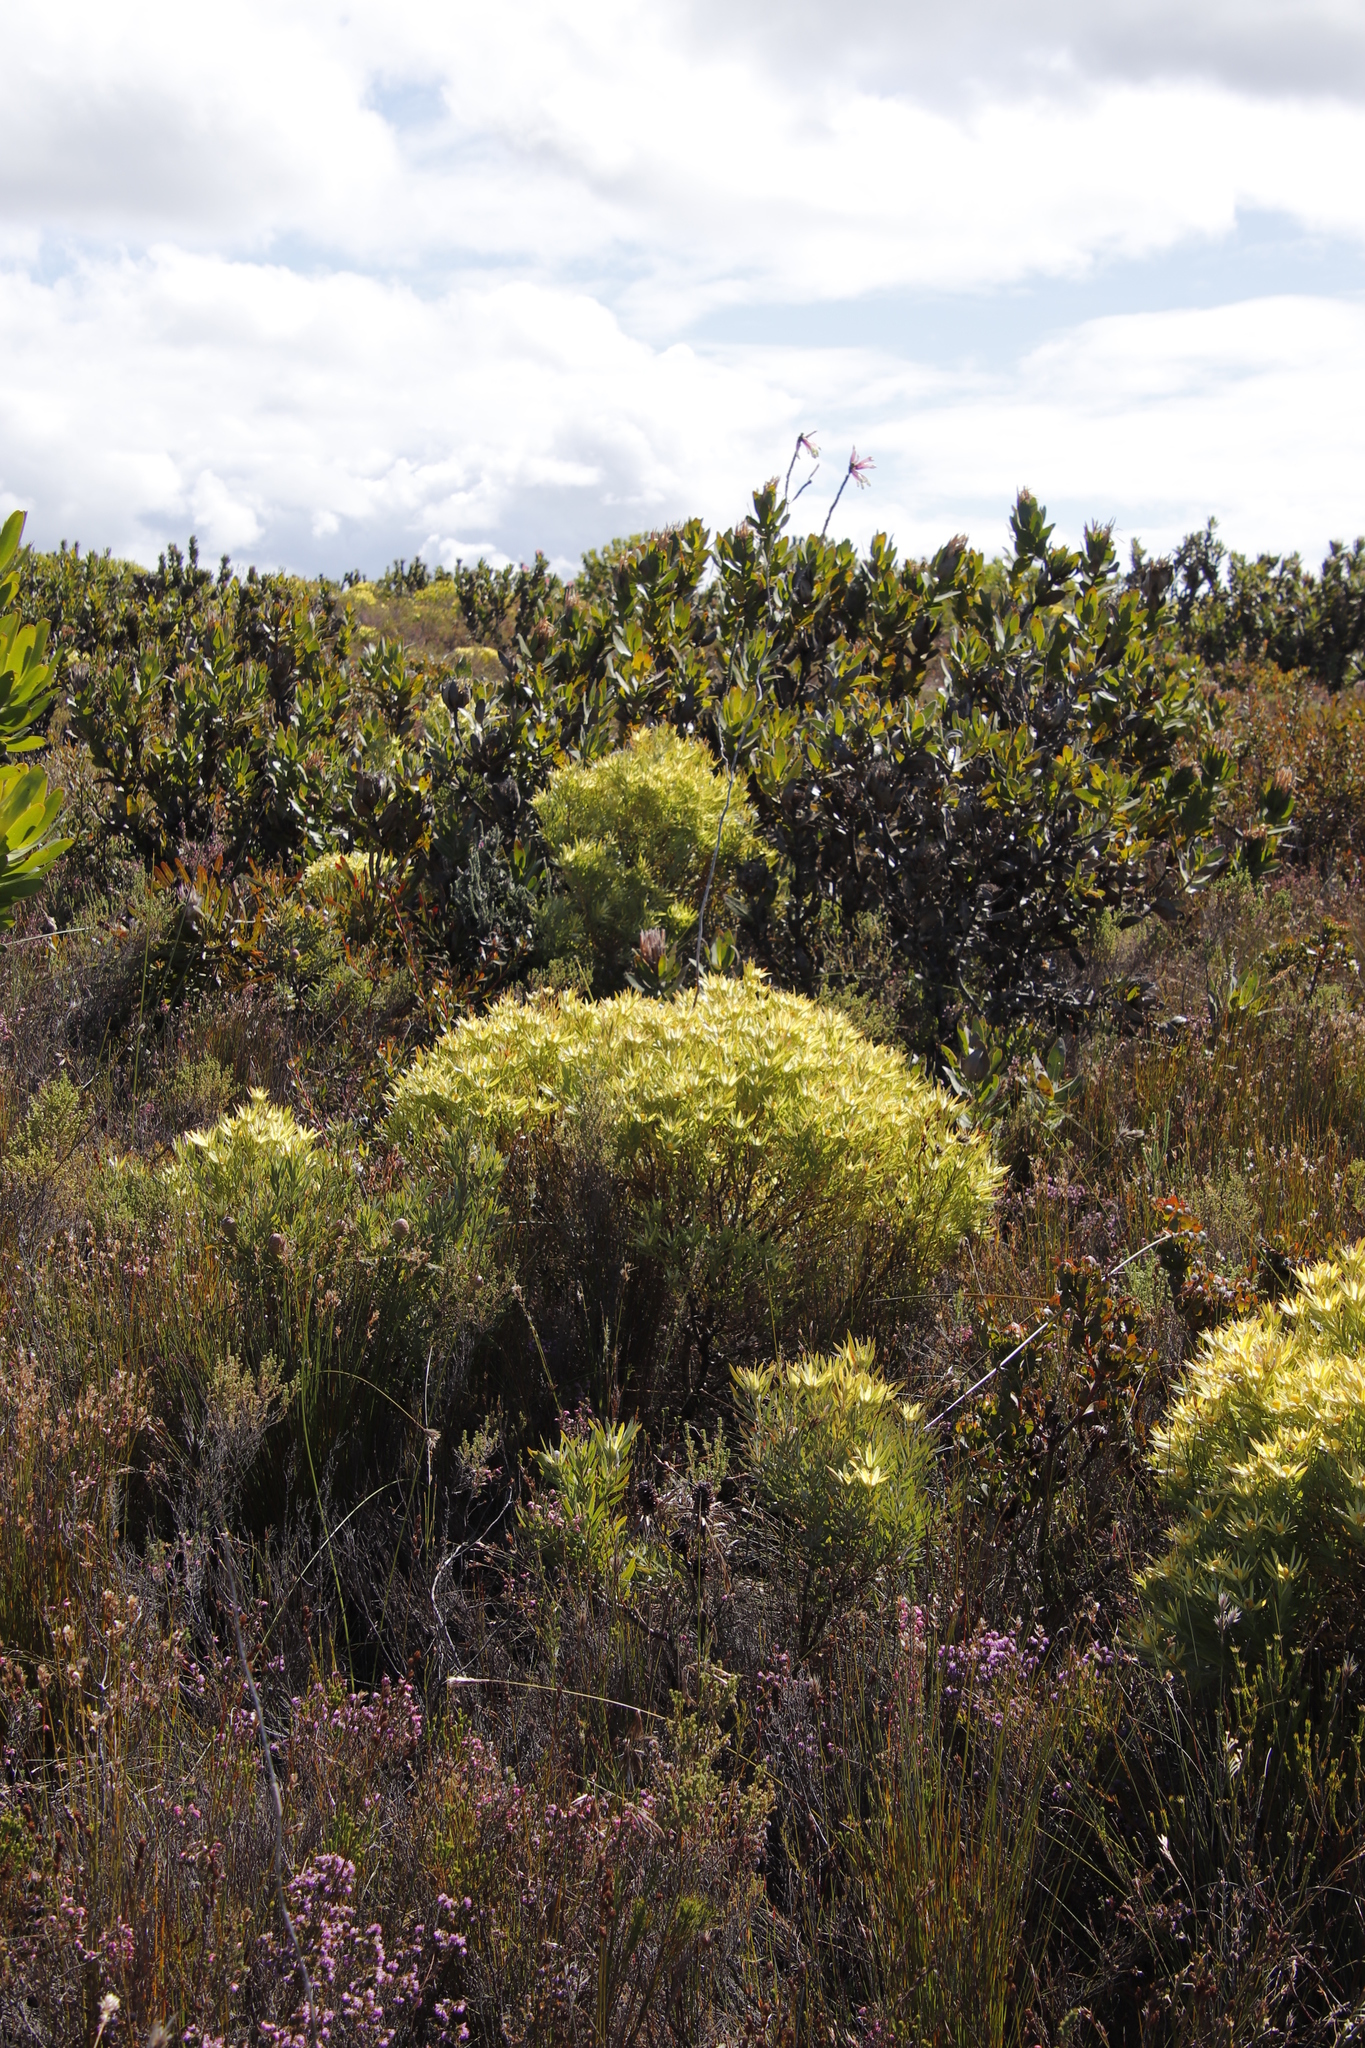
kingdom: Plantae
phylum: Tracheophyta
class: Magnoliopsida
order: Proteales
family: Proteaceae
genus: Leucadendron
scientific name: Leucadendron xanthoconus
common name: Sickle-leaf conebush
